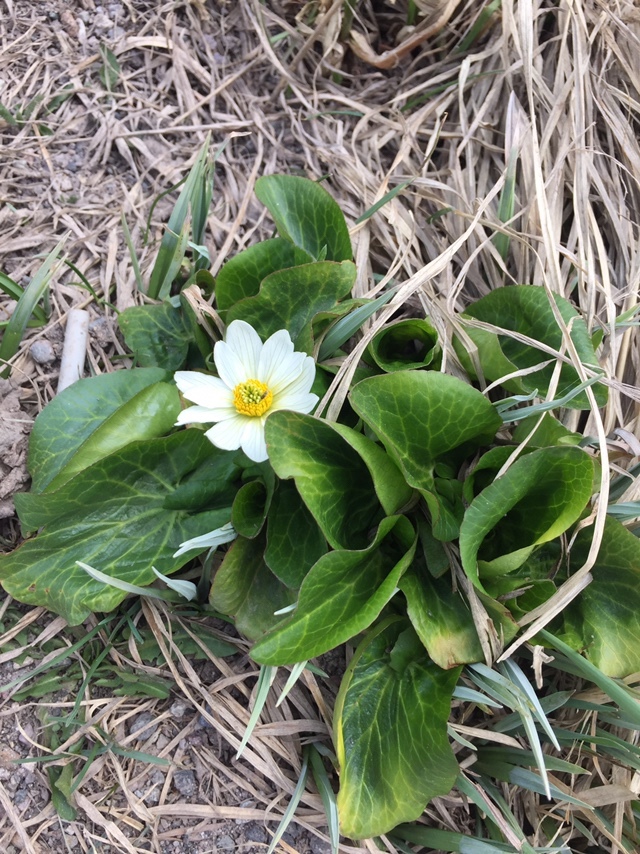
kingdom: Plantae
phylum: Tracheophyta
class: Magnoliopsida
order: Ranunculales
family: Ranunculaceae
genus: Caltha
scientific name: Caltha leptosepala
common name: Elkslip
